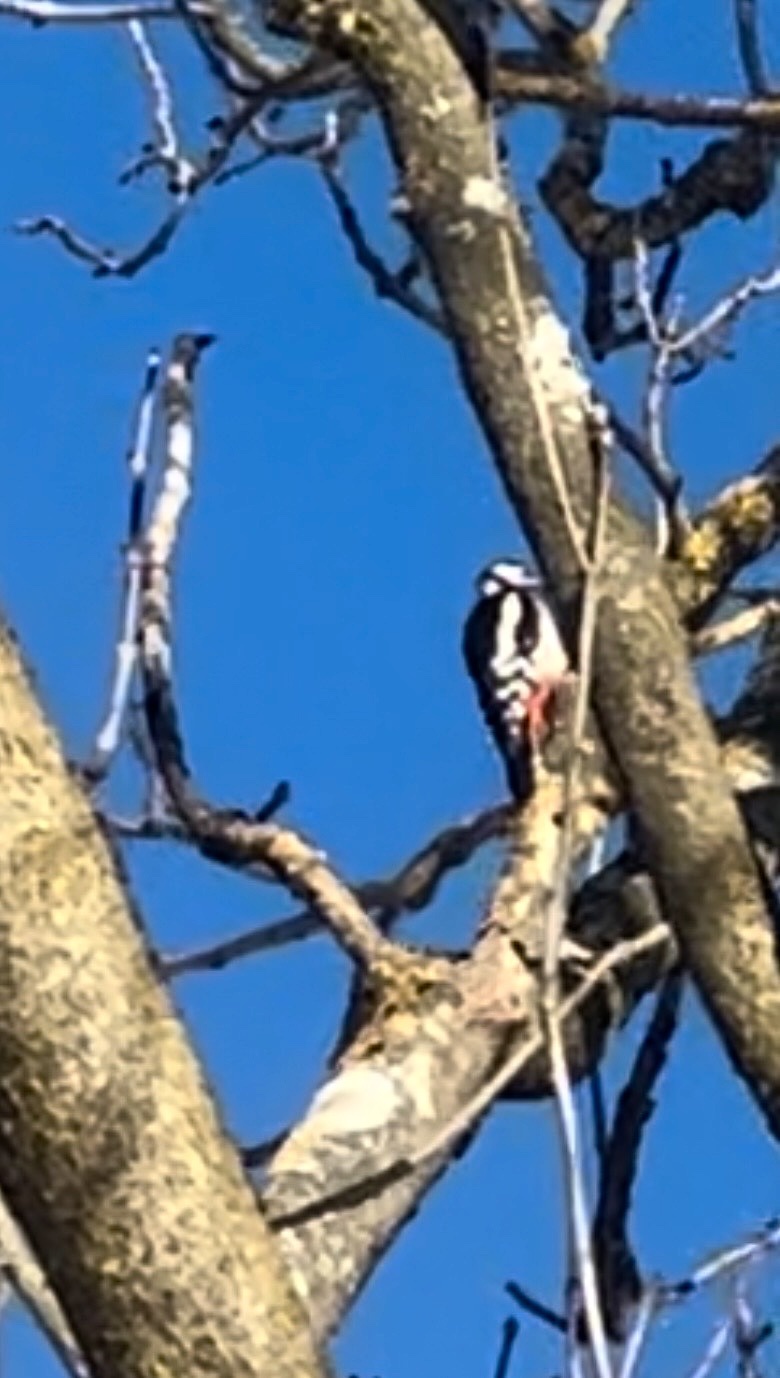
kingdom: Animalia
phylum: Chordata
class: Aves
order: Piciformes
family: Picidae
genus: Dendrocopos
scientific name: Dendrocopos major
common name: Great spotted woodpecker
